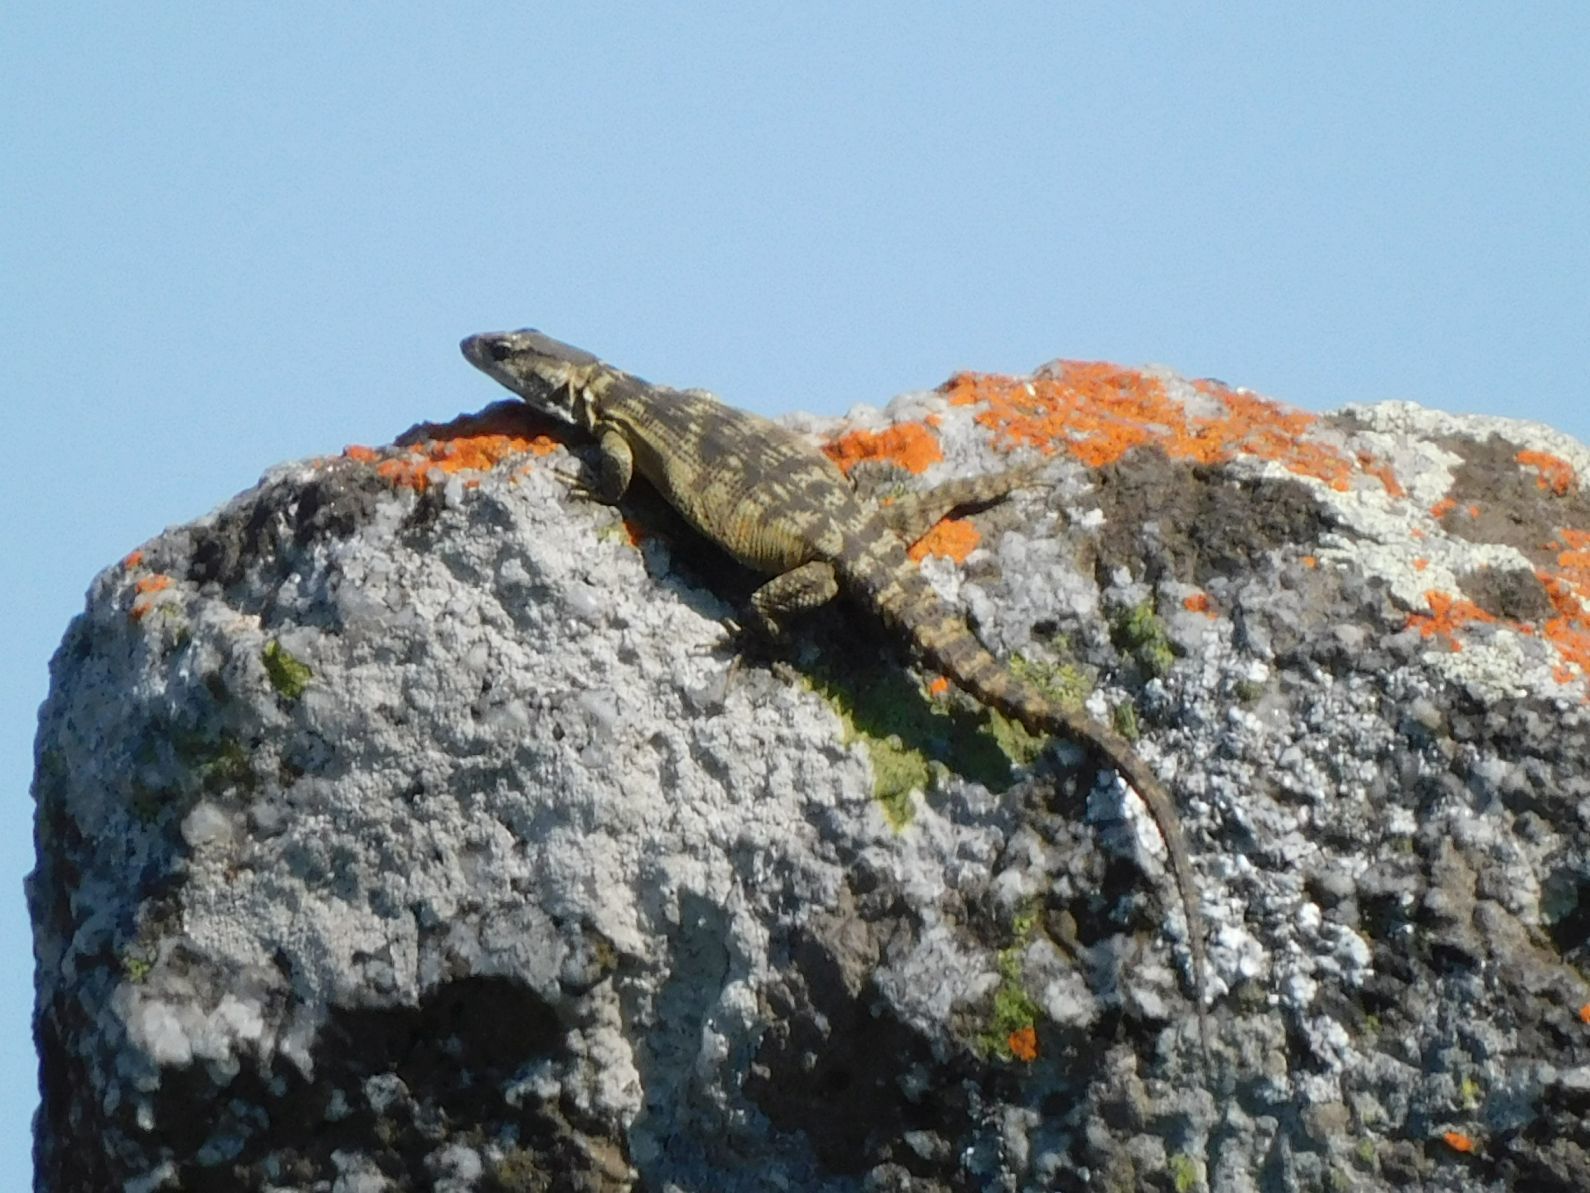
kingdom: Animalia
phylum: Chordata
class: Squamata
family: Cordylidae
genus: Pseudocordylus
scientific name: Pseudocordylus melanotus
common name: Highveld crag lizard
